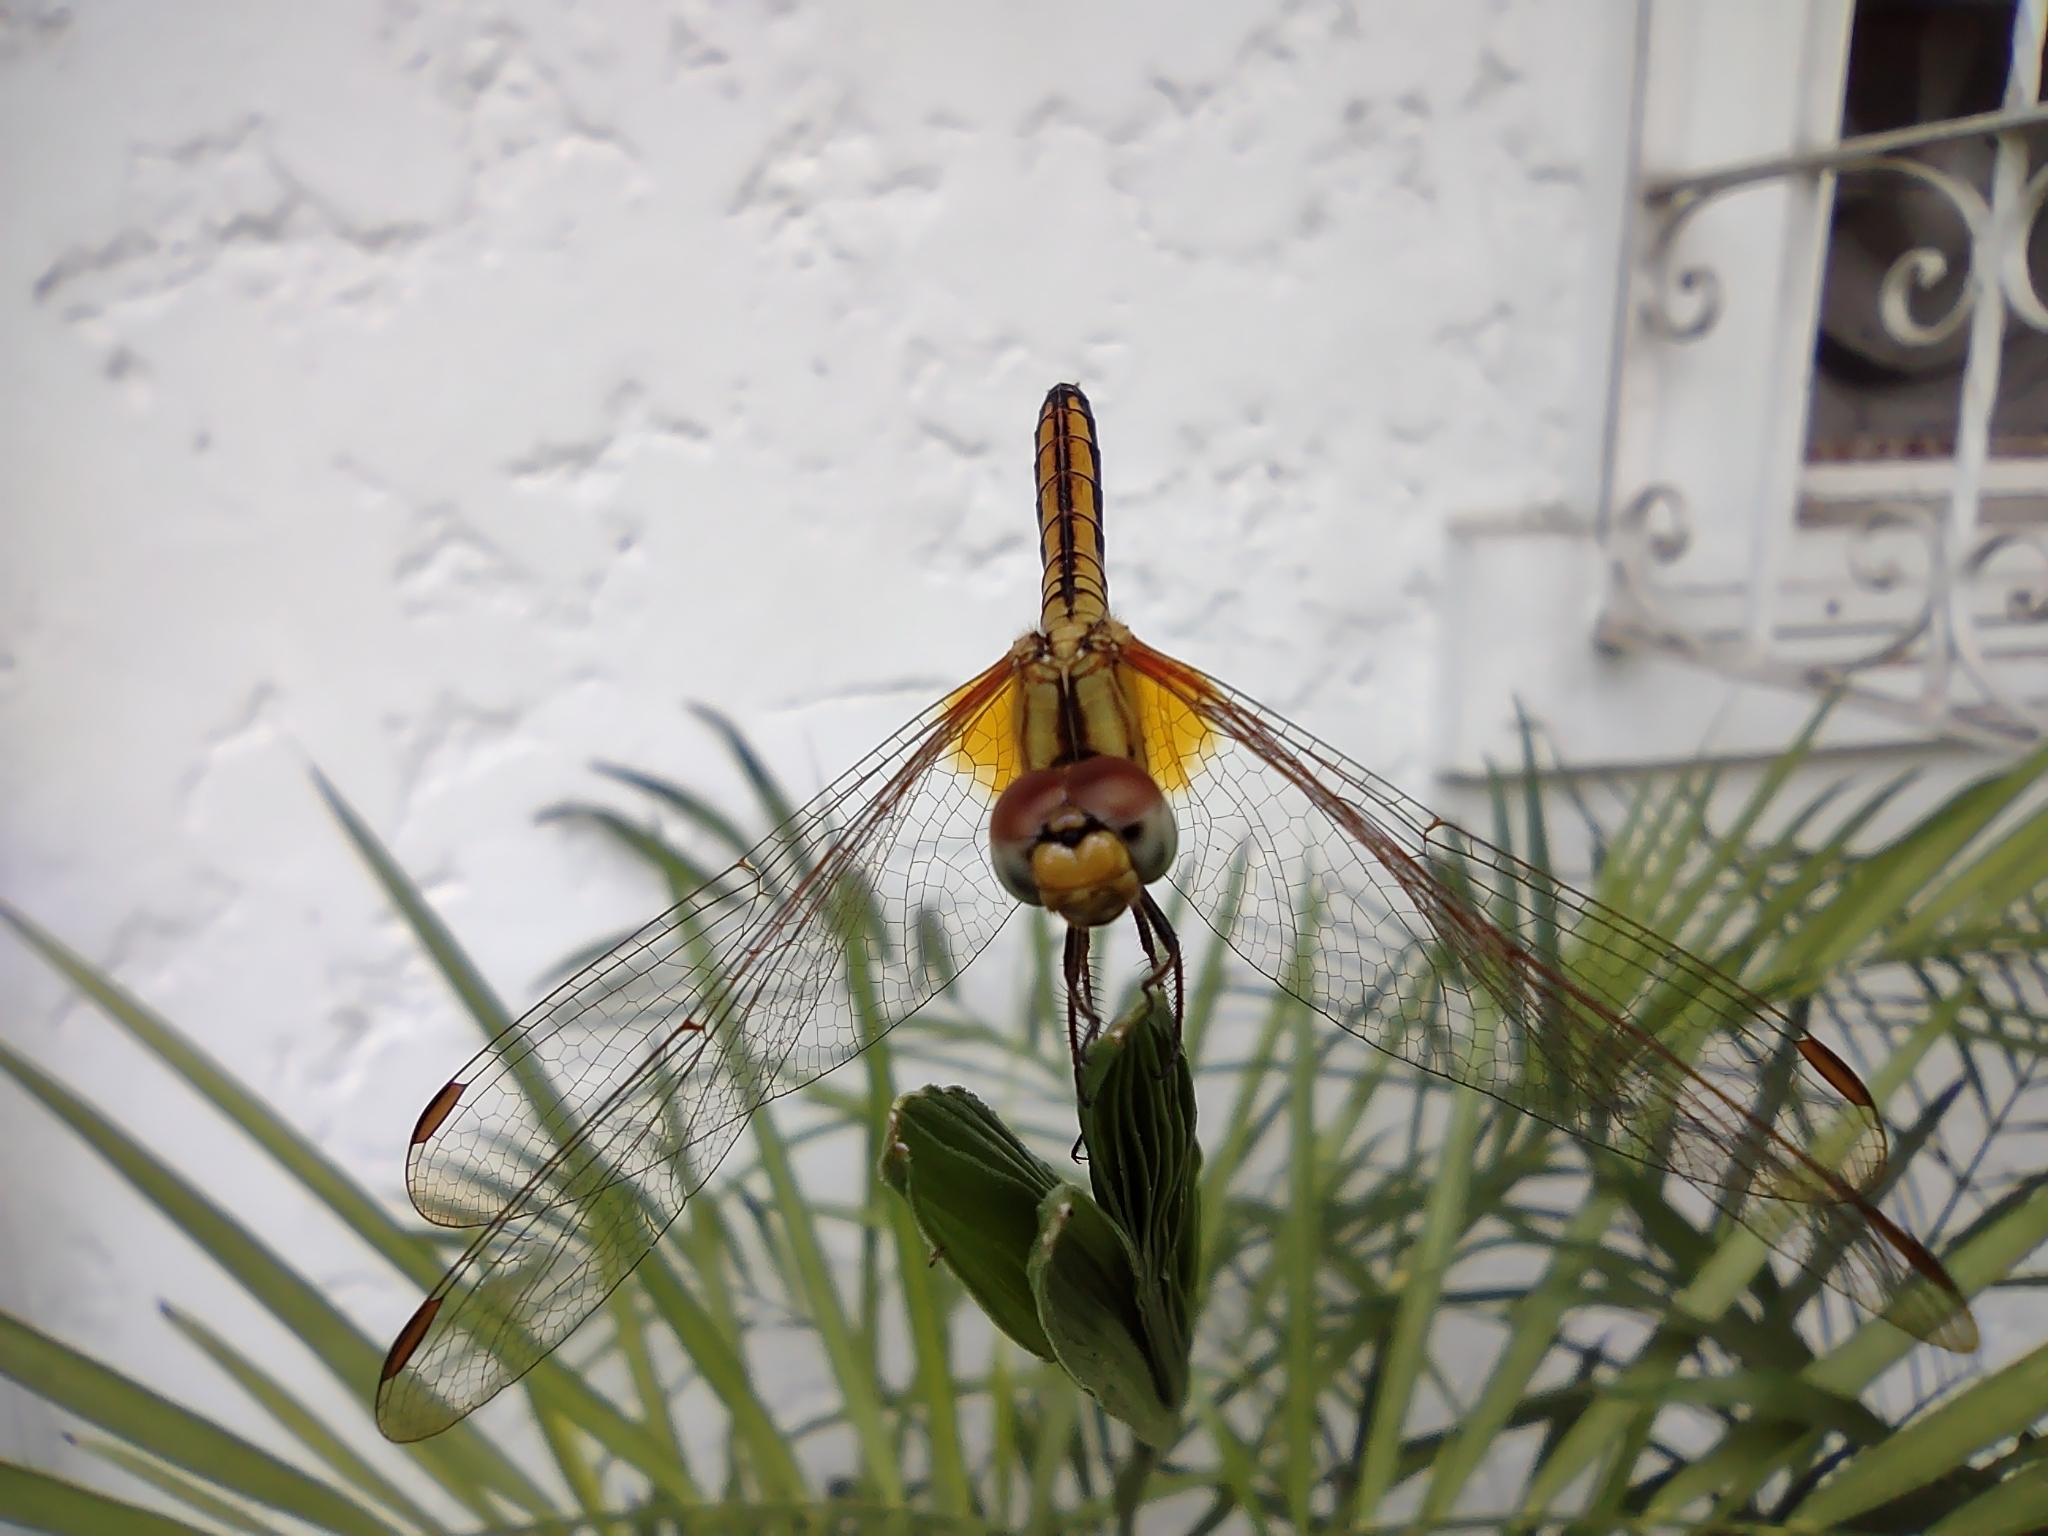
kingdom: Animalia
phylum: Arthropoda
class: Insecta
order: Odonata
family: Libellulidae
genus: Trithemis
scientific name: Trithemis aurora
